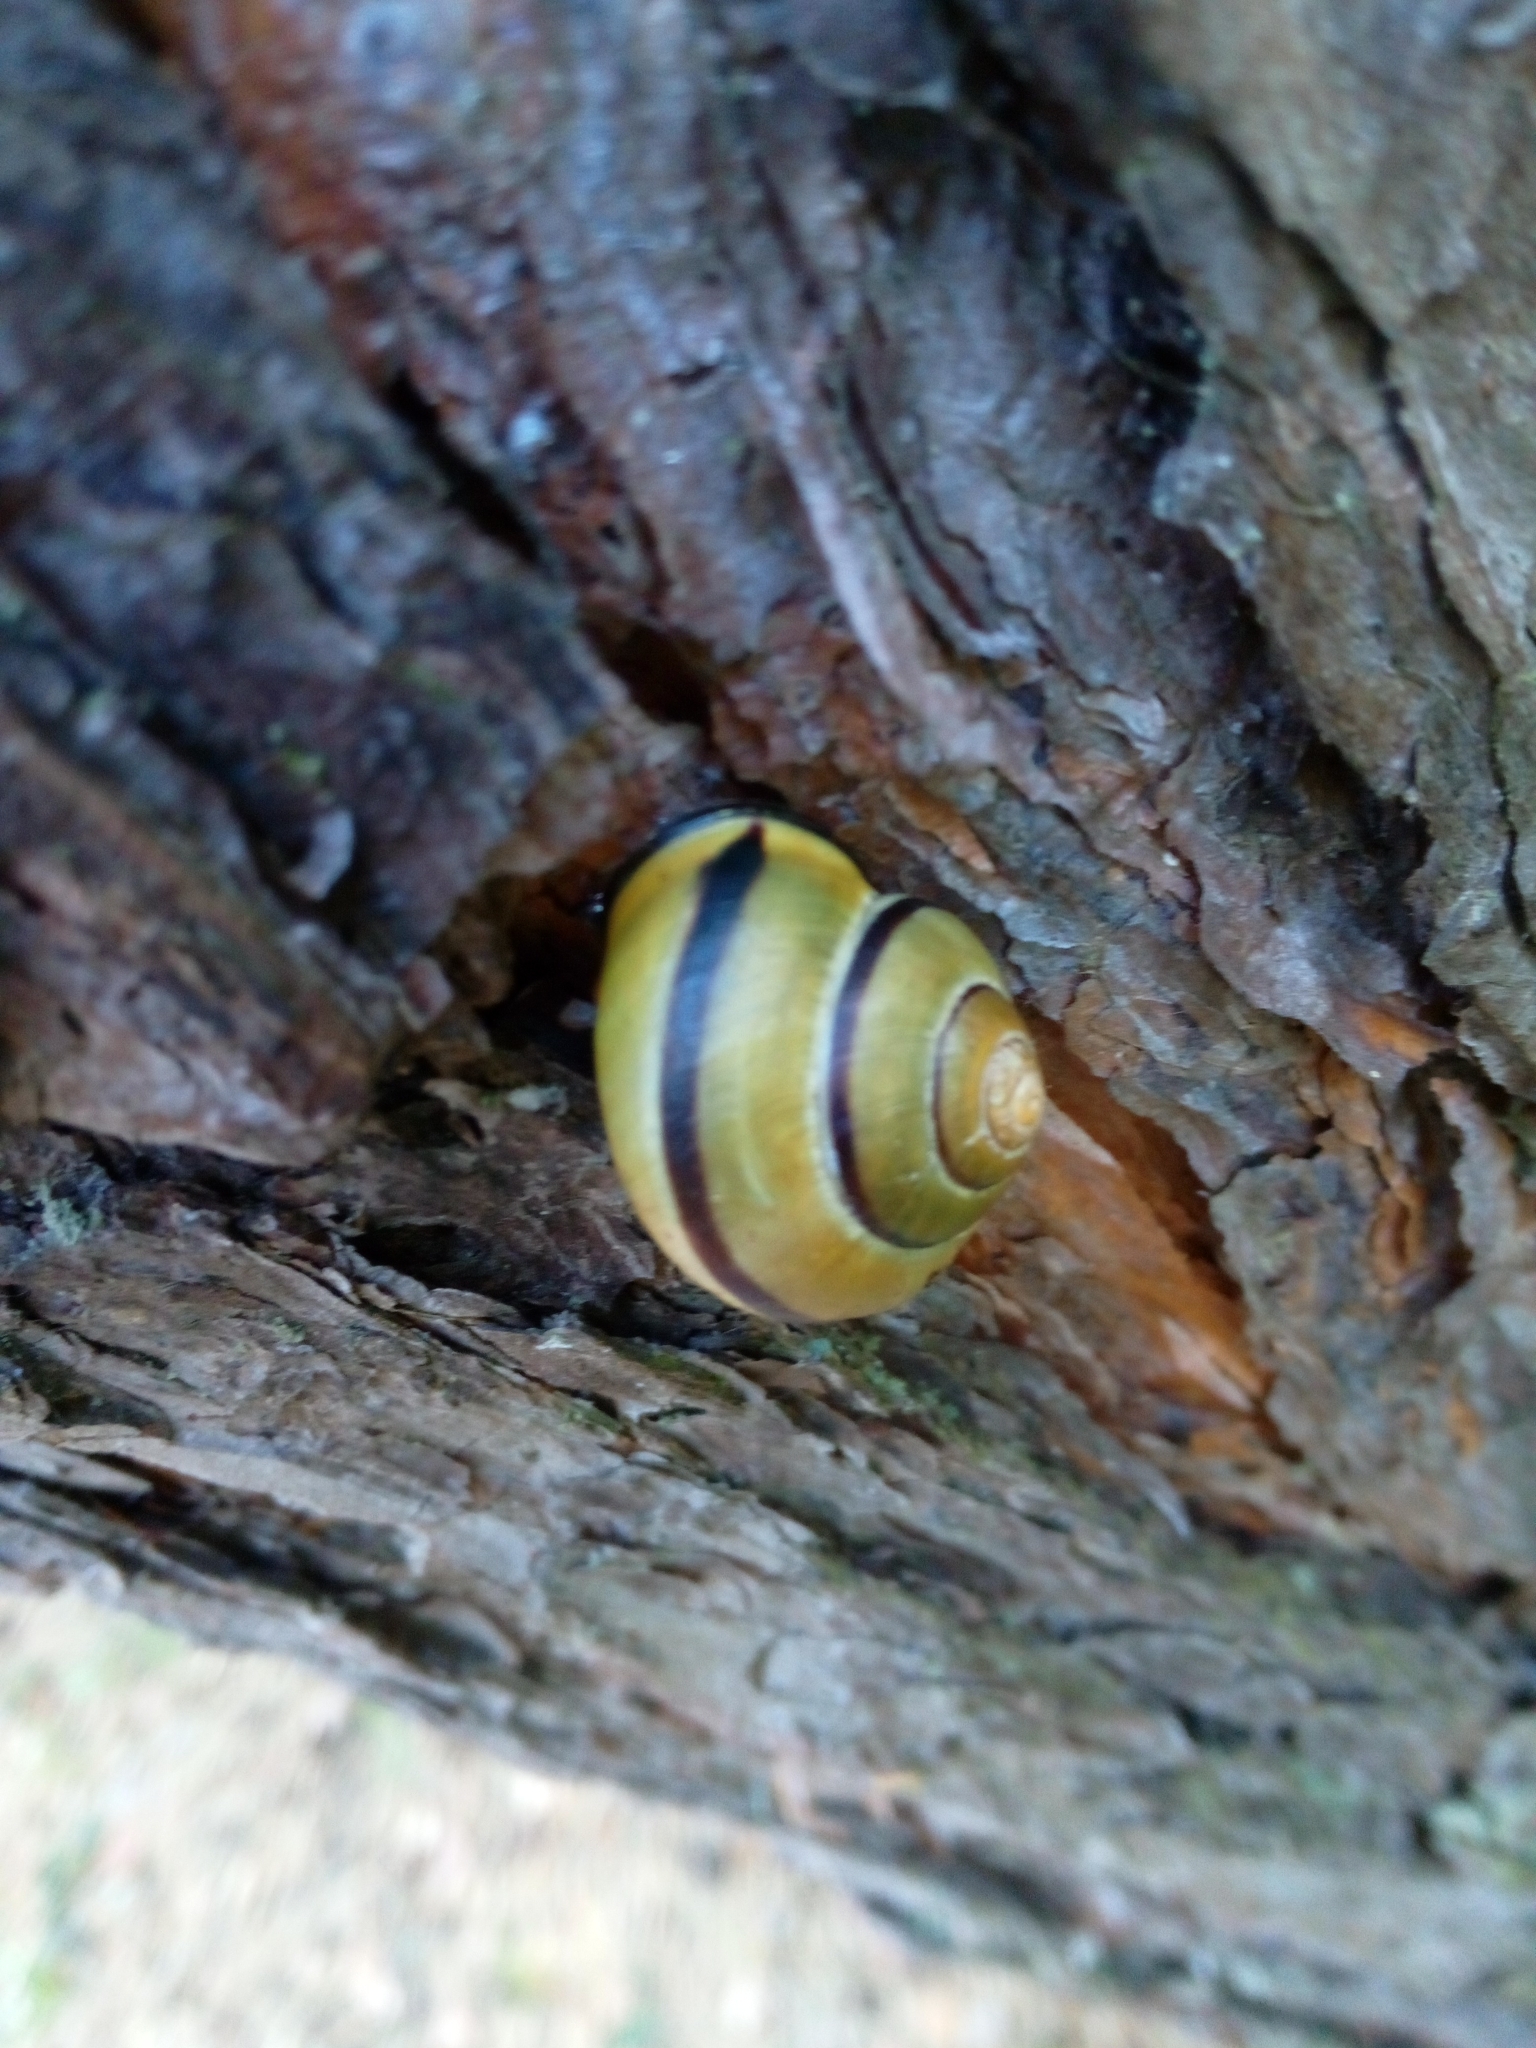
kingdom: Animalia
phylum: Mollusca
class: Gastropoda
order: Stylommatophora
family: Helicidae
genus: Cepaea
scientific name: Cepaea nemoralis
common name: Grovesnail
